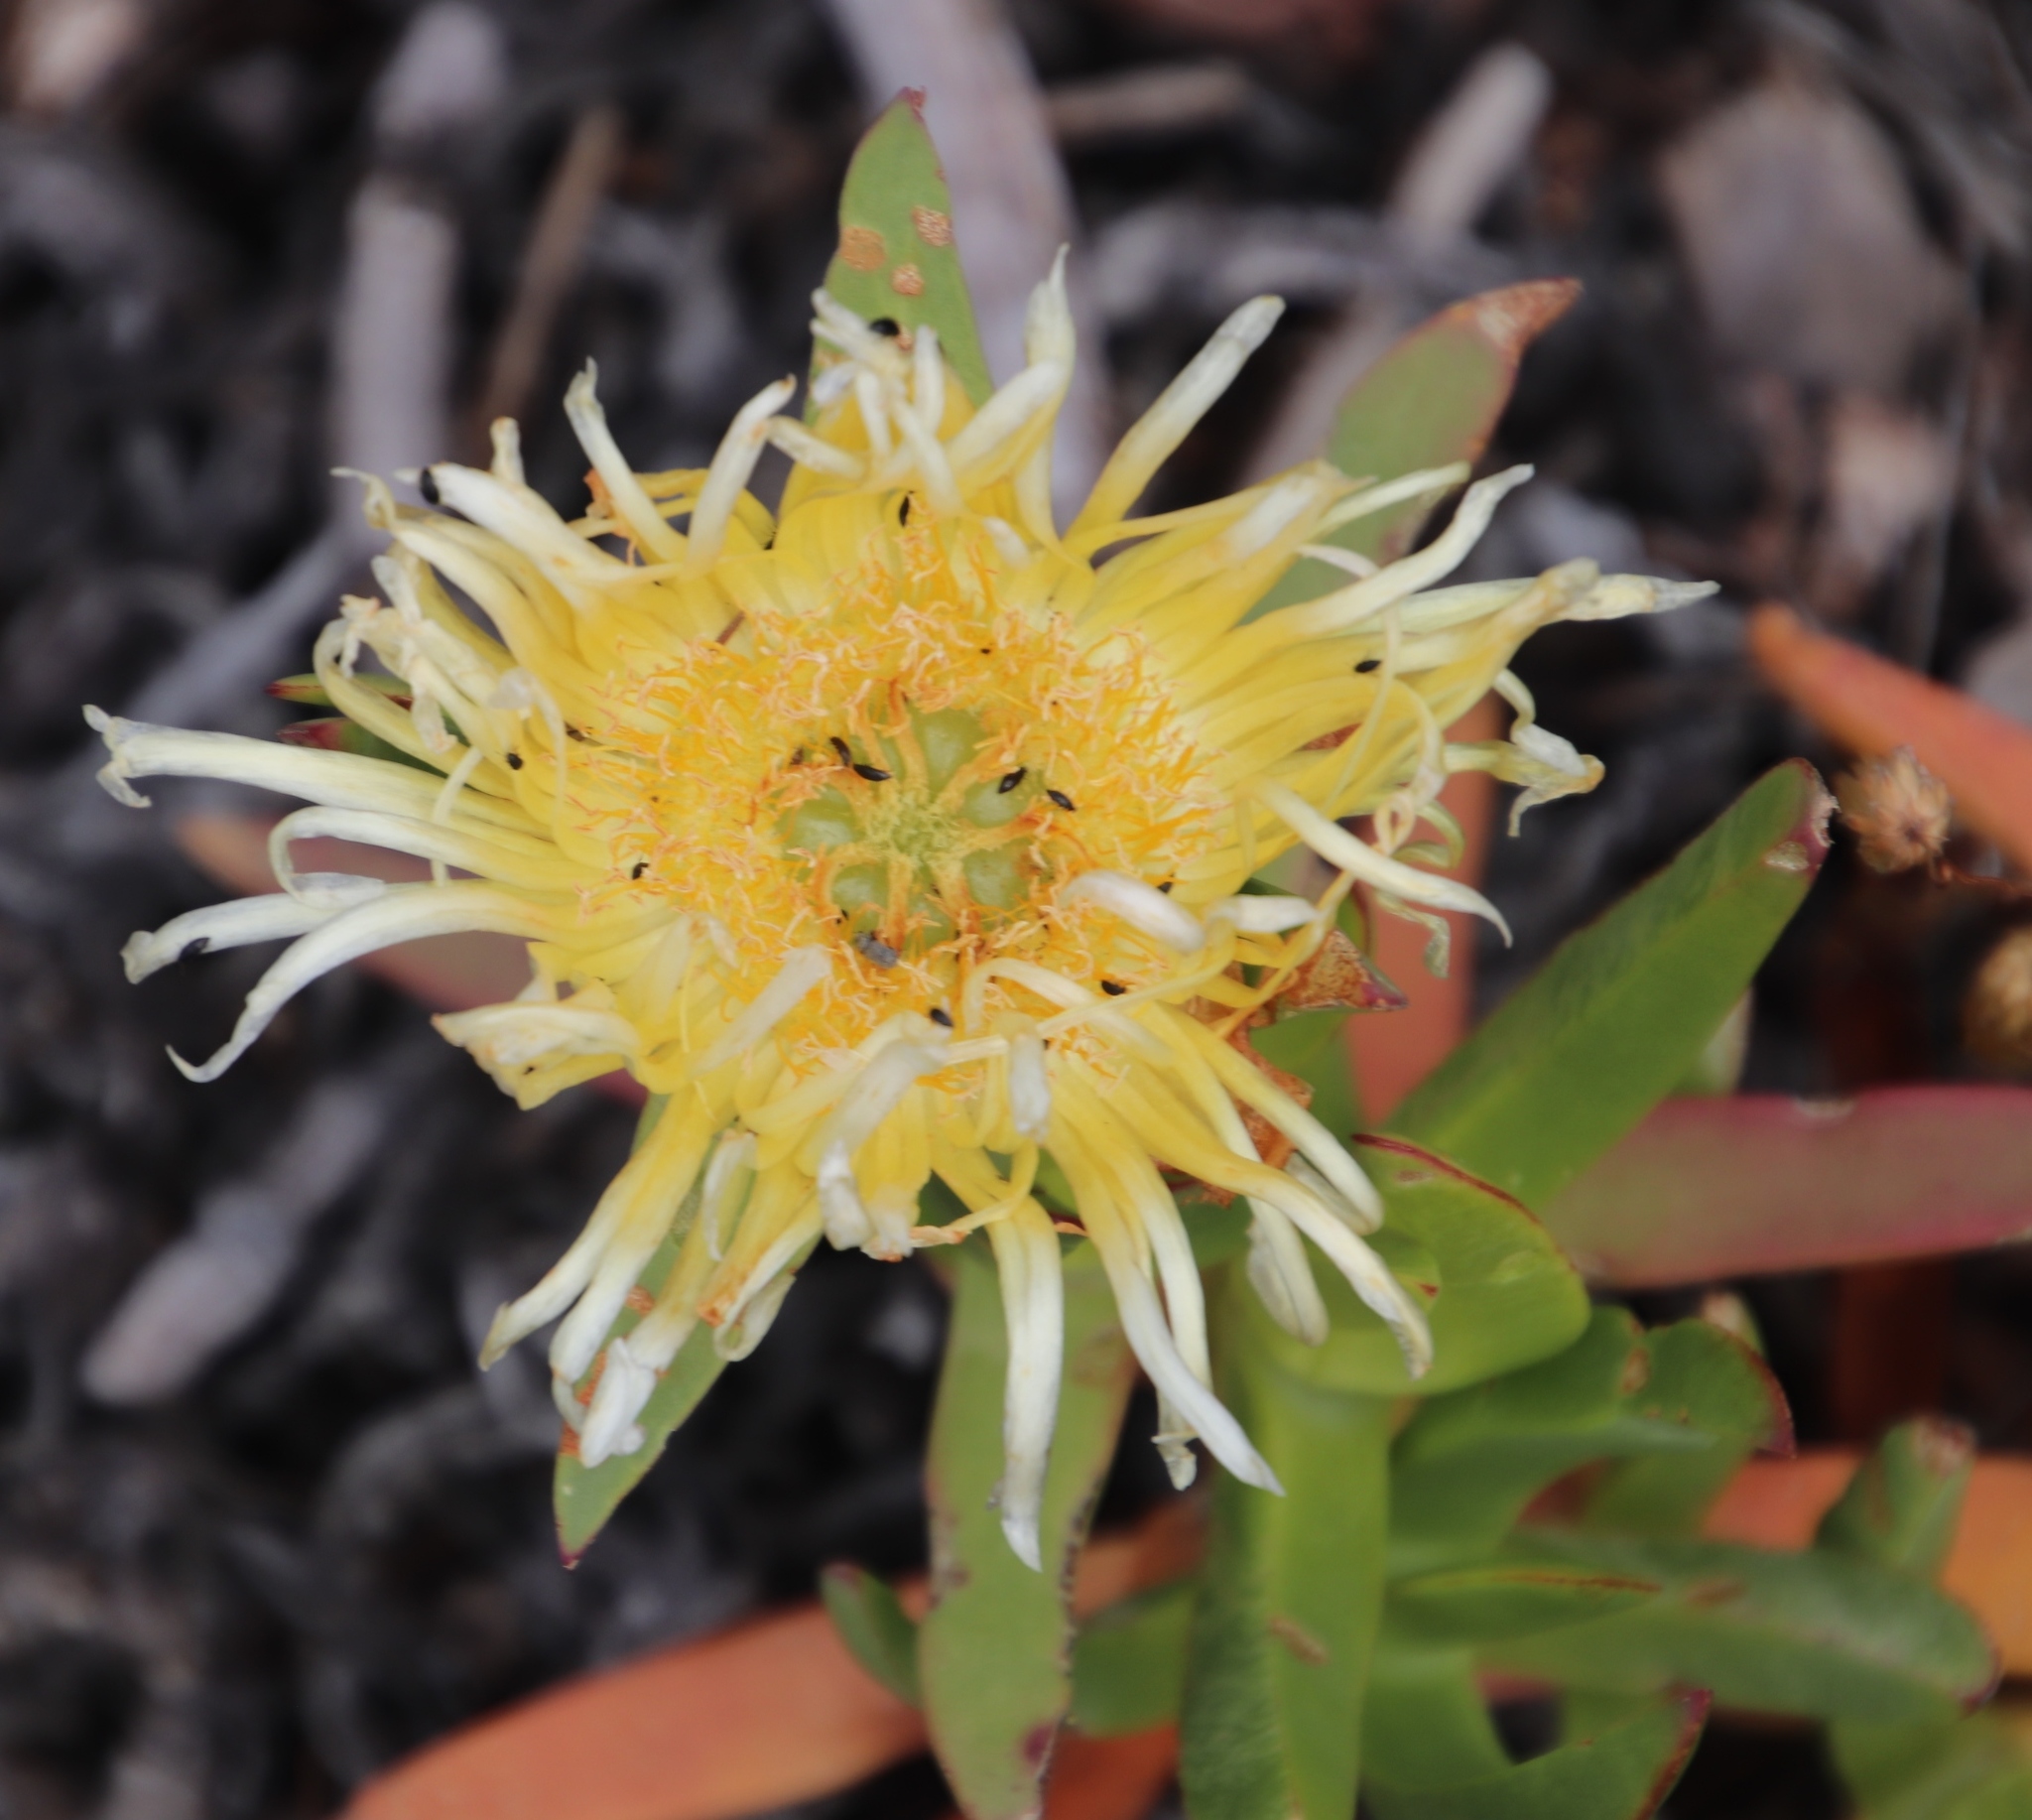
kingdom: Plantae
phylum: Tracheophyta
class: Magnoliopsida
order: Caryophyllales
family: Aizoaceae
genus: Carpobrotus
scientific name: Carpobrotus edulis
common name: Hottentot-fig
